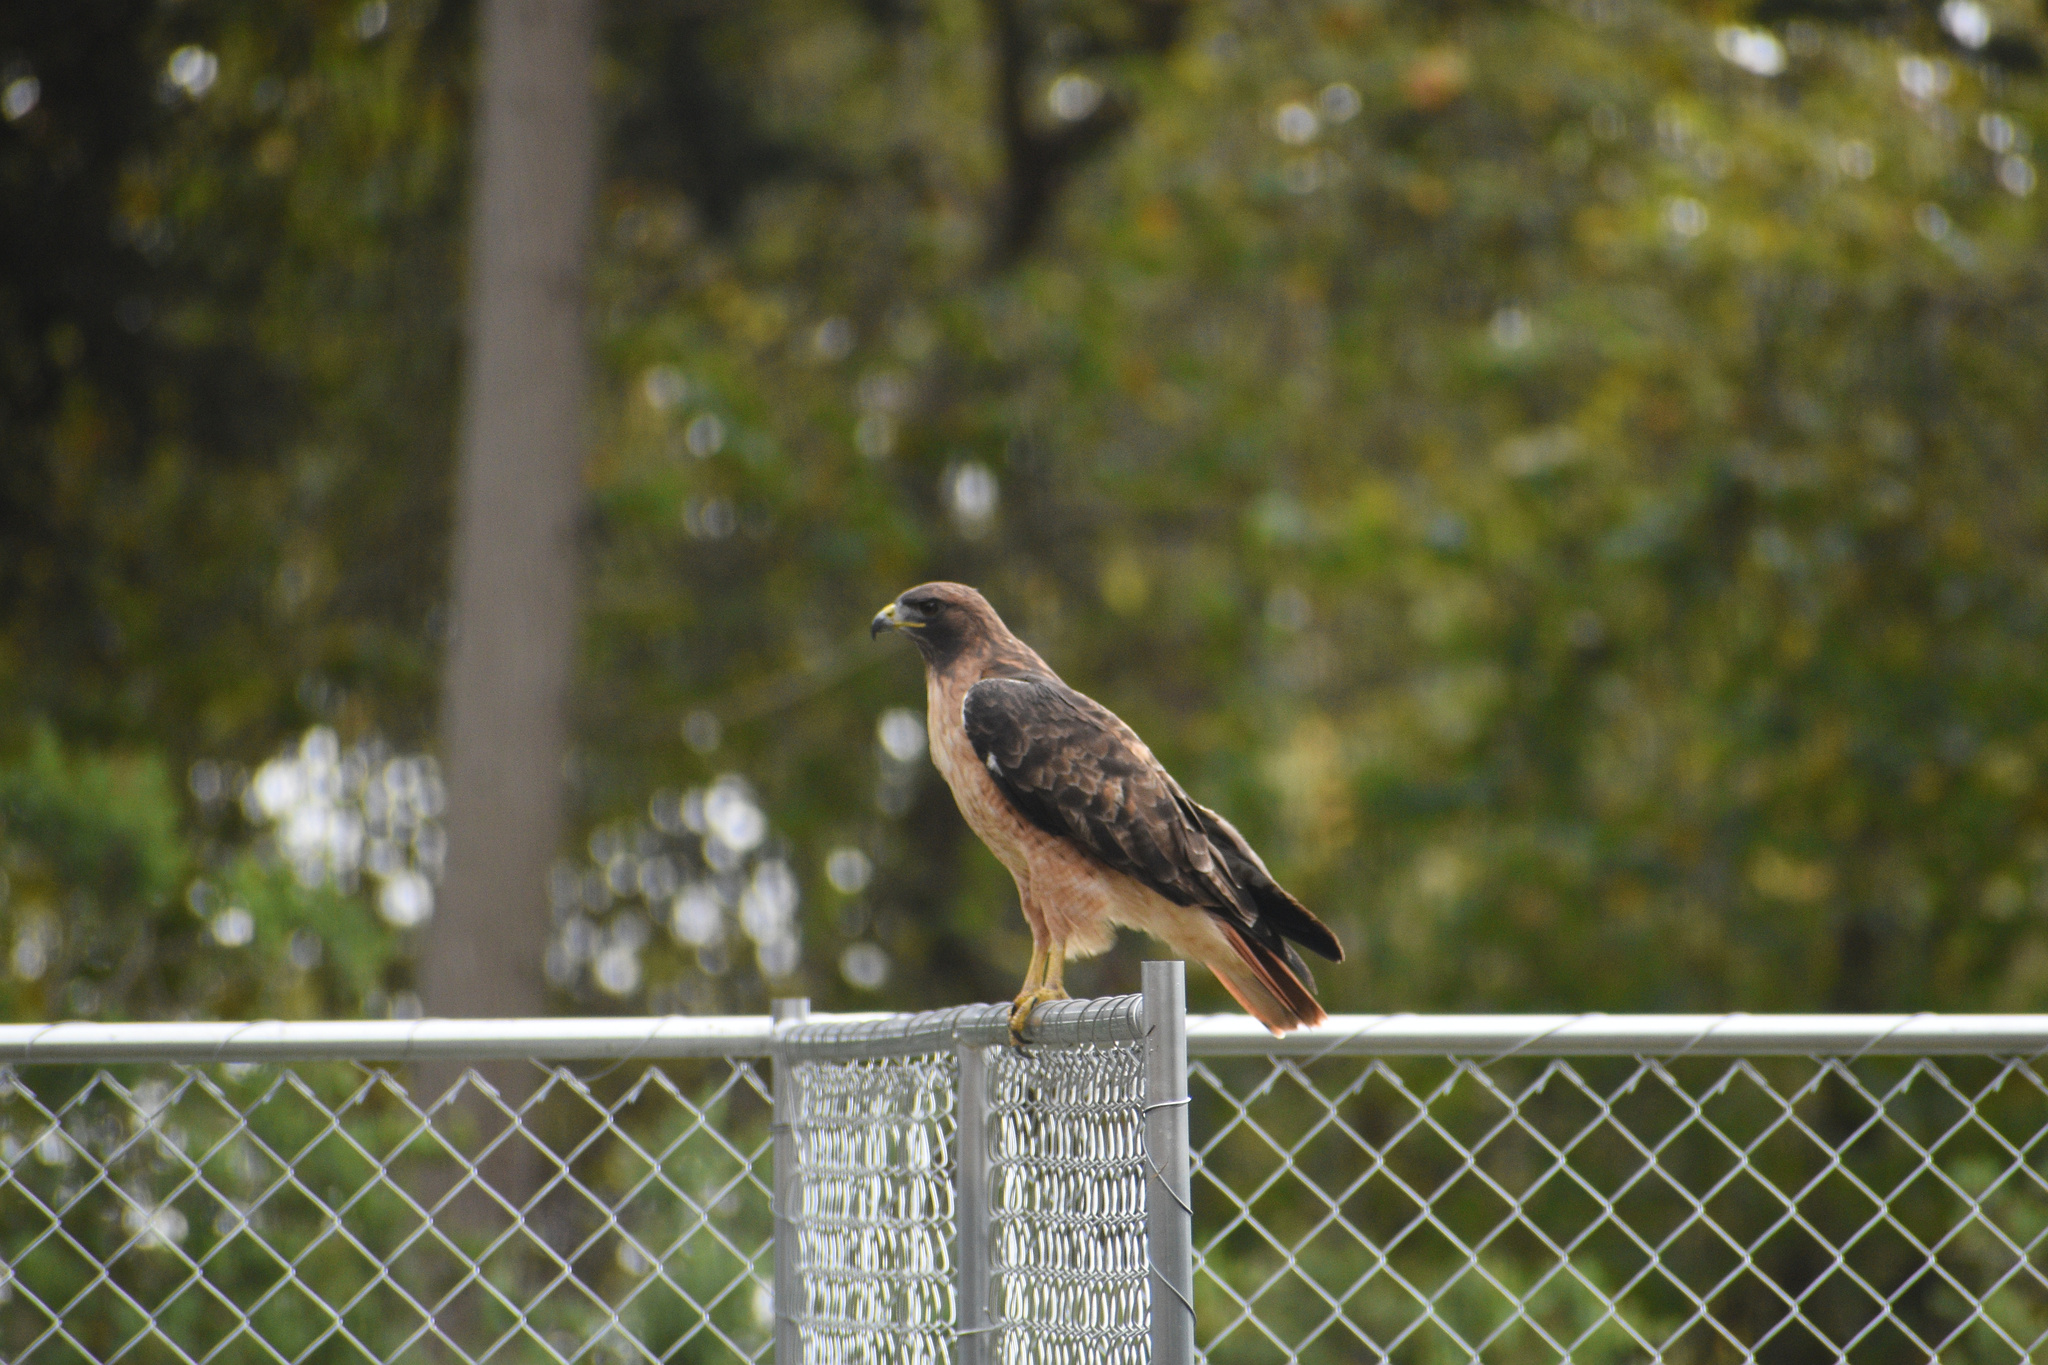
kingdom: Animalia
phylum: Chordata
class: Aves
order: Accipitriformes
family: Accipitridae
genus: Buteo
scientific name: Buteo jamaicensis
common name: Red-tailed hawk
